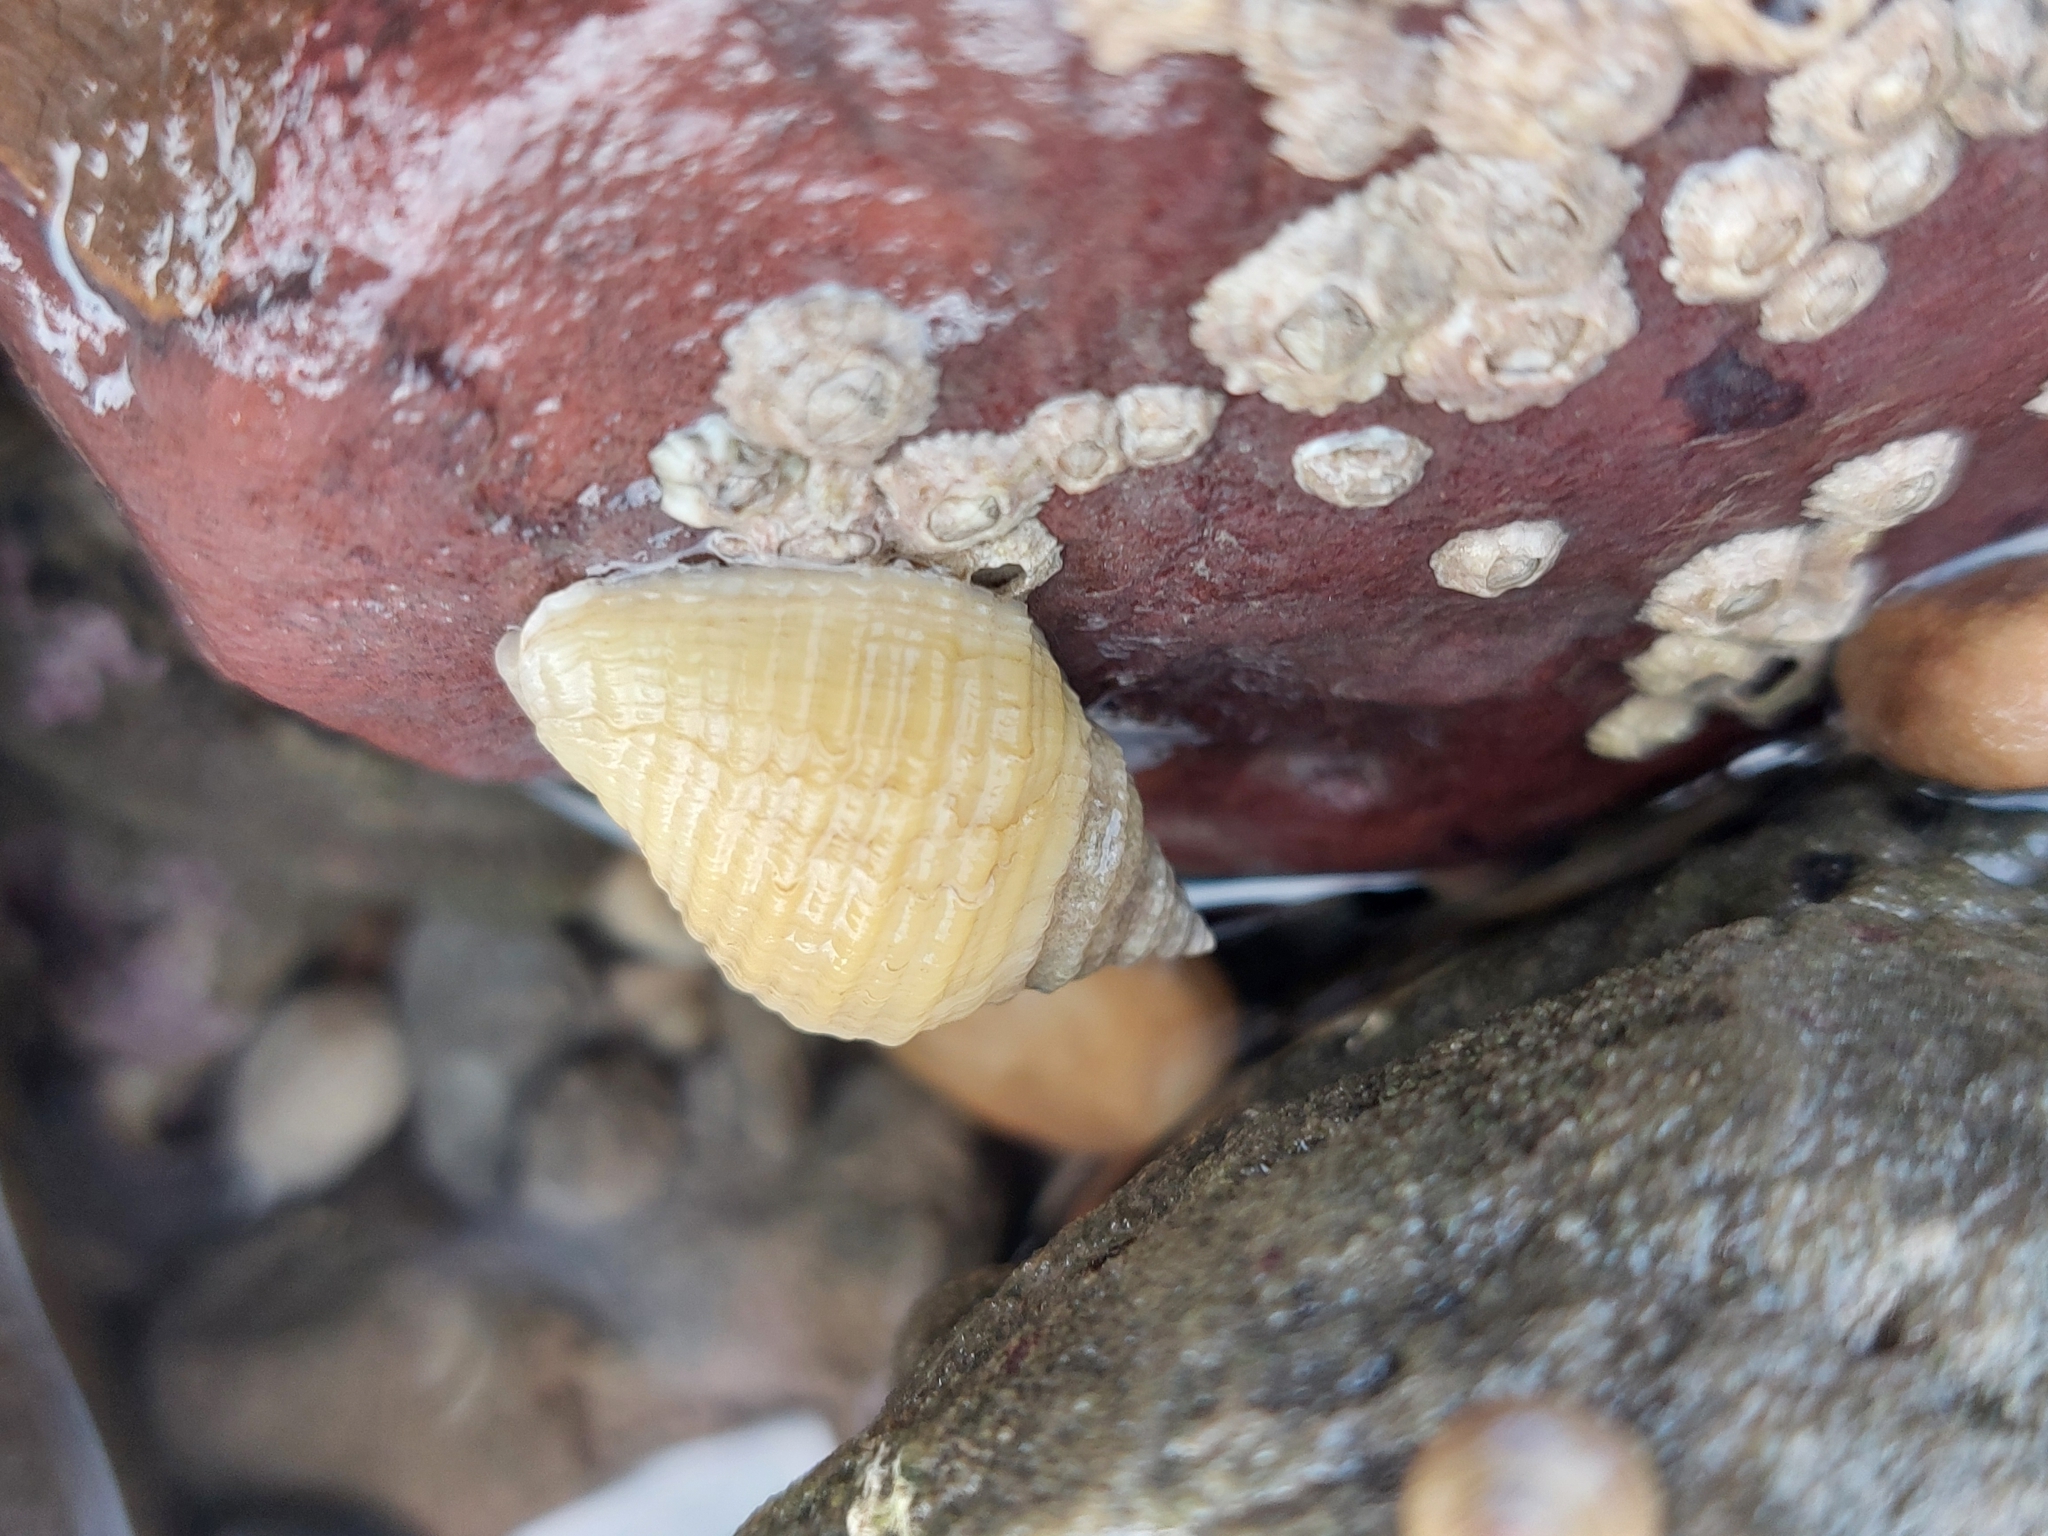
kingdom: Animalia
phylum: Mollusca
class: Gastropoda
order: Neogastropoda
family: Muricidae
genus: Nucella
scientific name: Nucella lapillus
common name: Dog whelk
